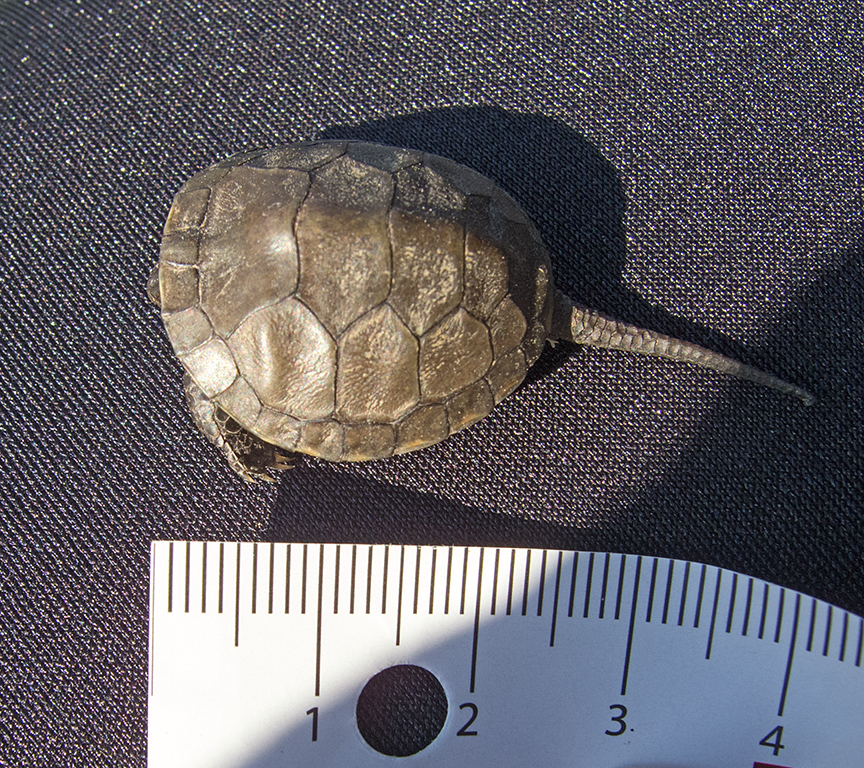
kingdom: Animalia
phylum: Chordata
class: Testudines
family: Emydidae
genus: Emys
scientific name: Emys orbicularis
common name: European pond turtle
